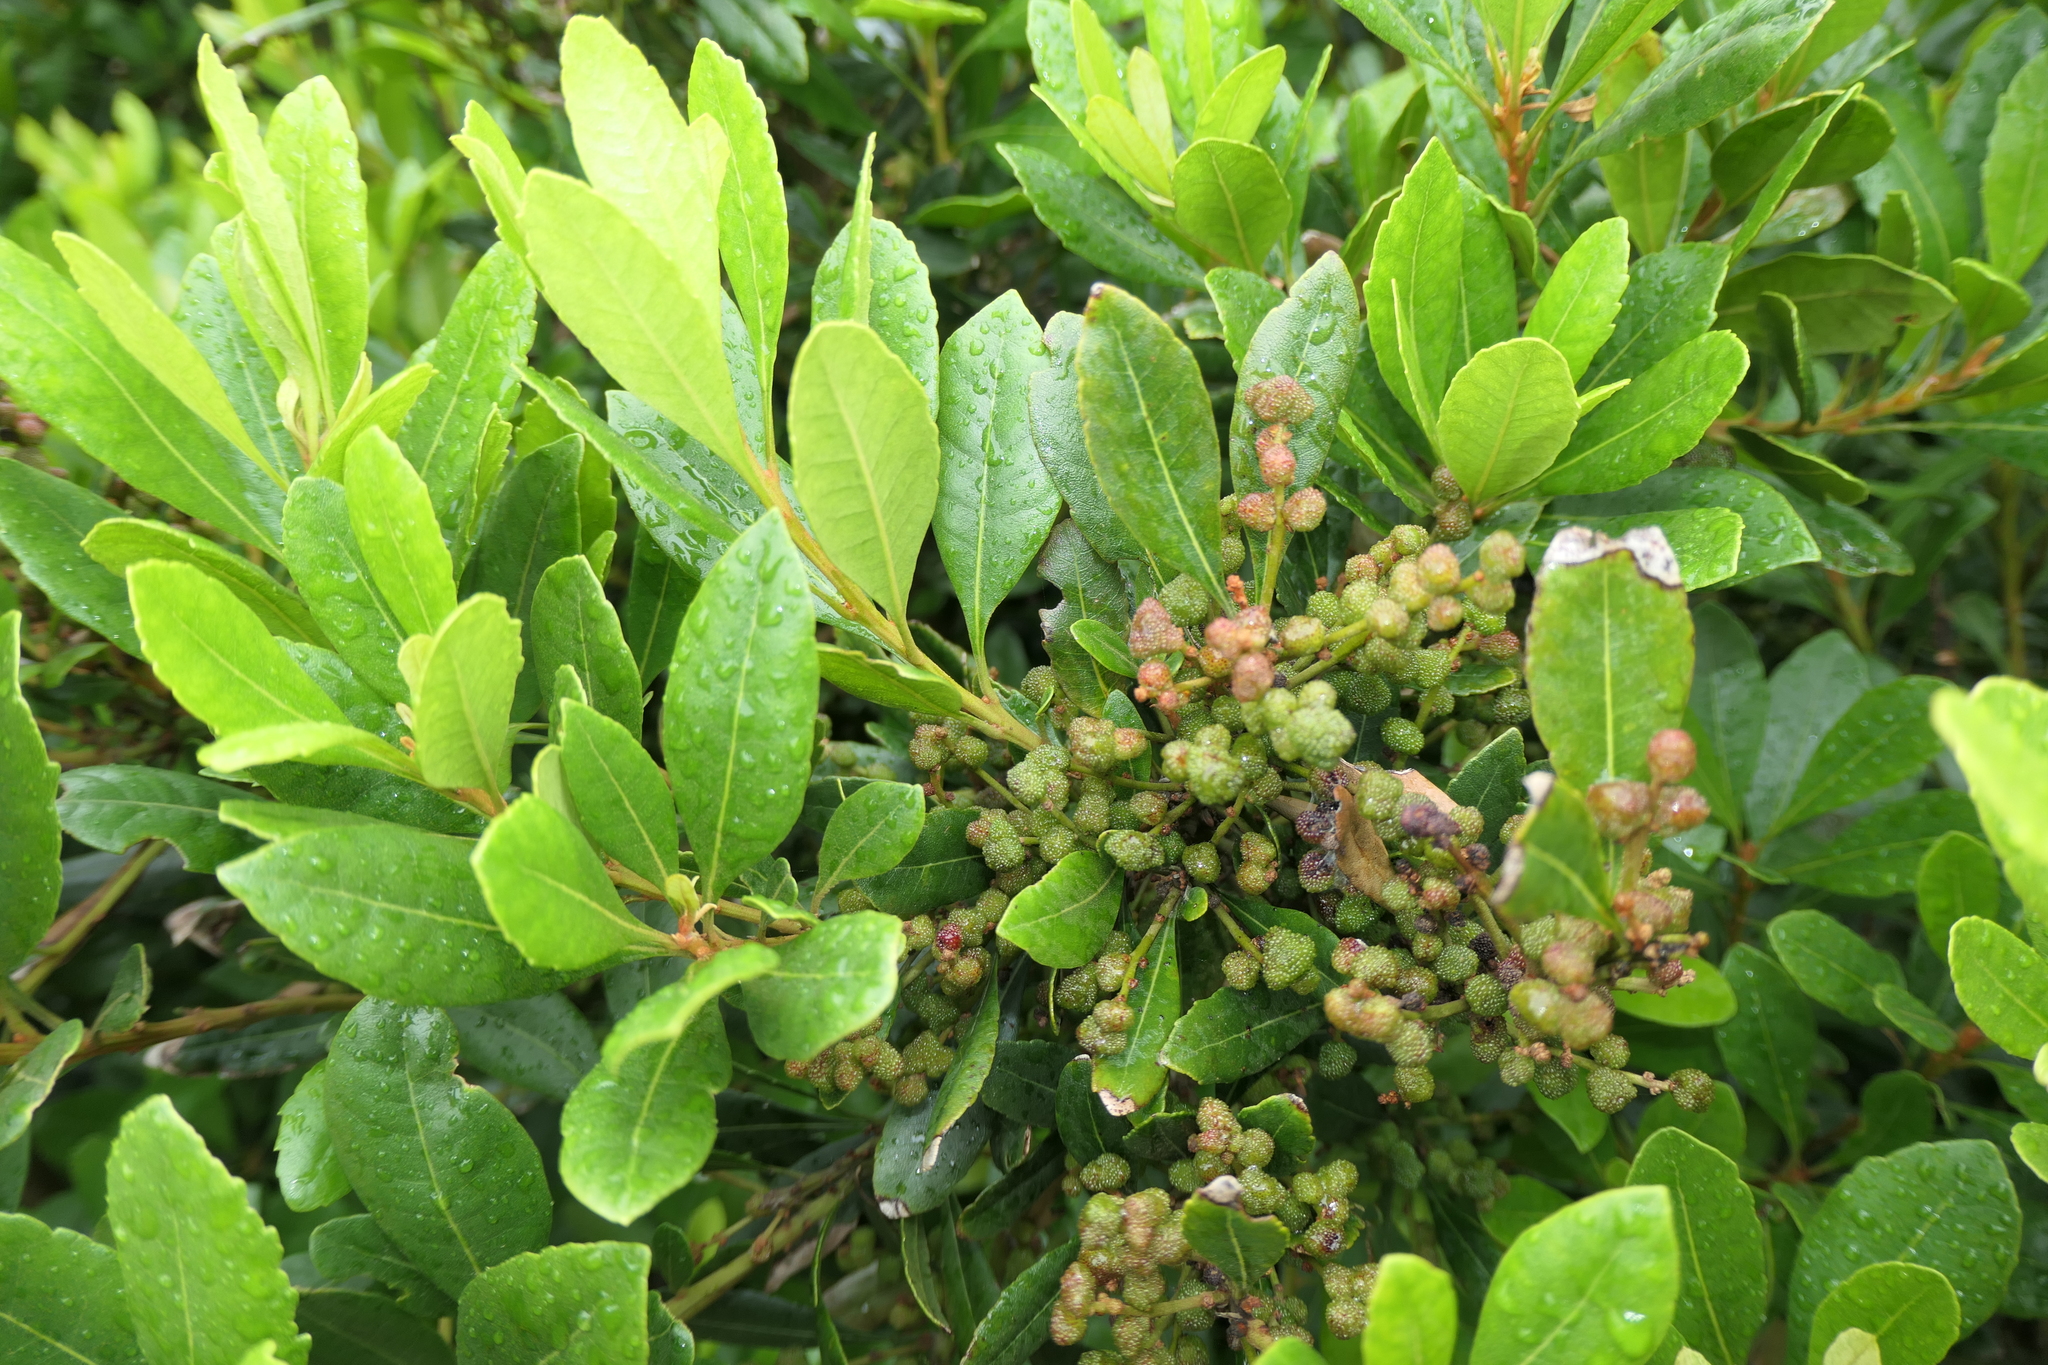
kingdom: Plantae
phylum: Tracheophyta
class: Magnoliopsida
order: Fagales
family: Myricaceae
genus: Morella
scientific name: Morella faya
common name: Firetree
